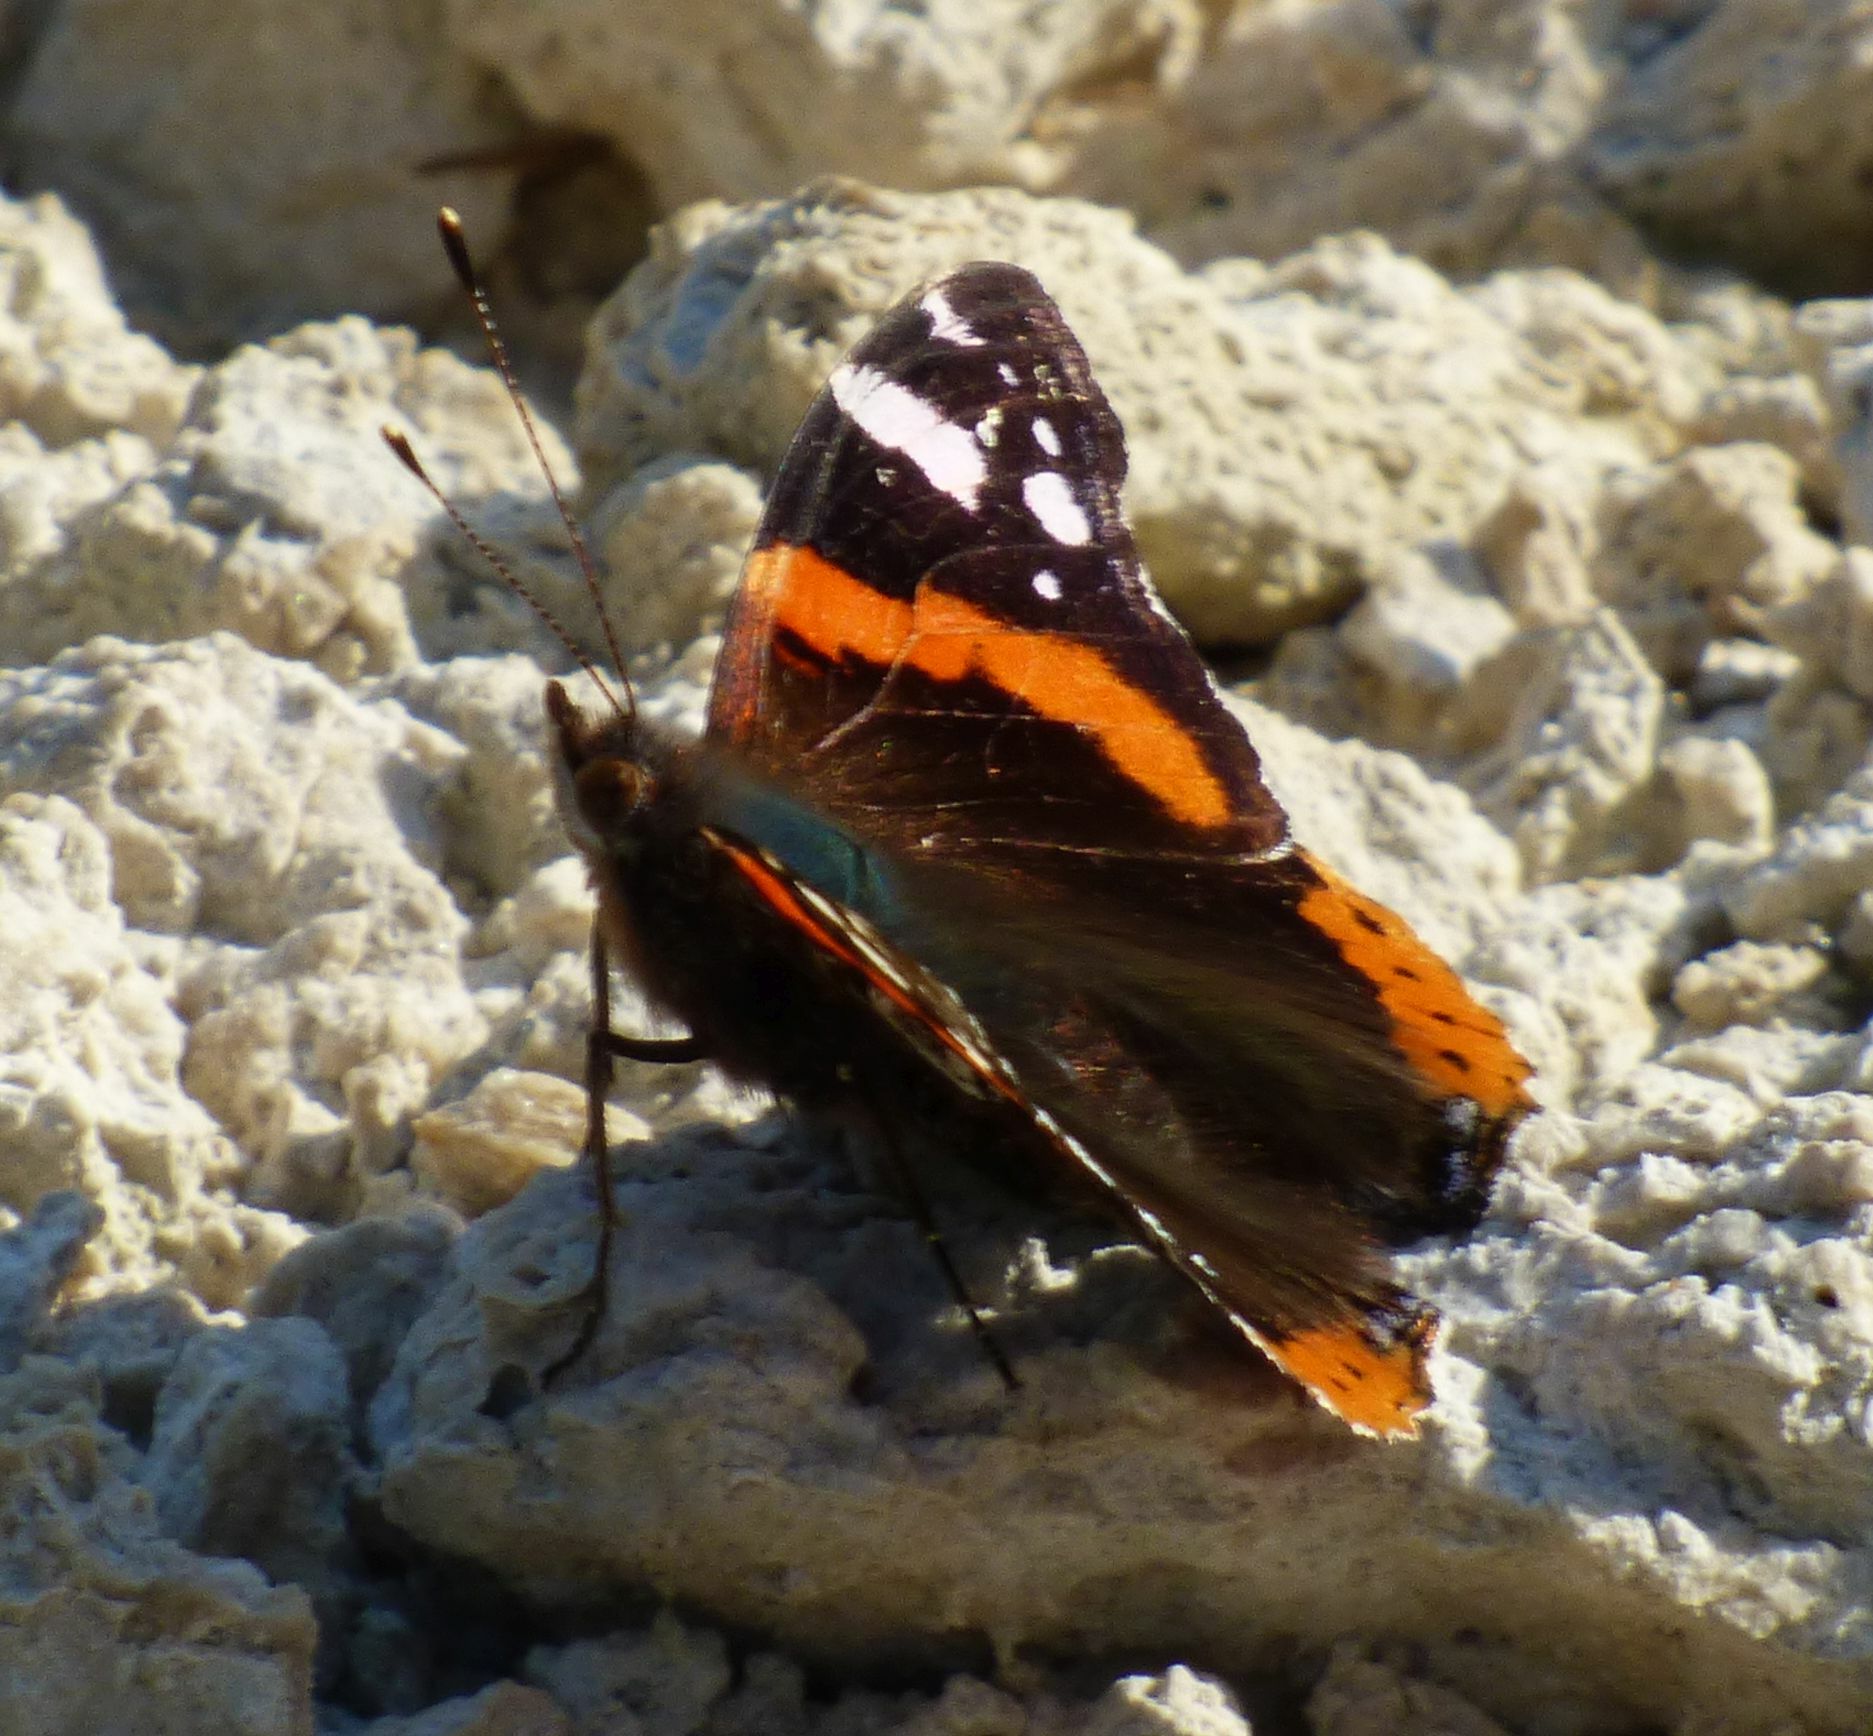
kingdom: Animalia
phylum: Arthropoda
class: Insecta
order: Lepidoptera
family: Nymphalidae
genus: Vanessa
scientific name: Vanessa atalanta
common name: Red admiral
